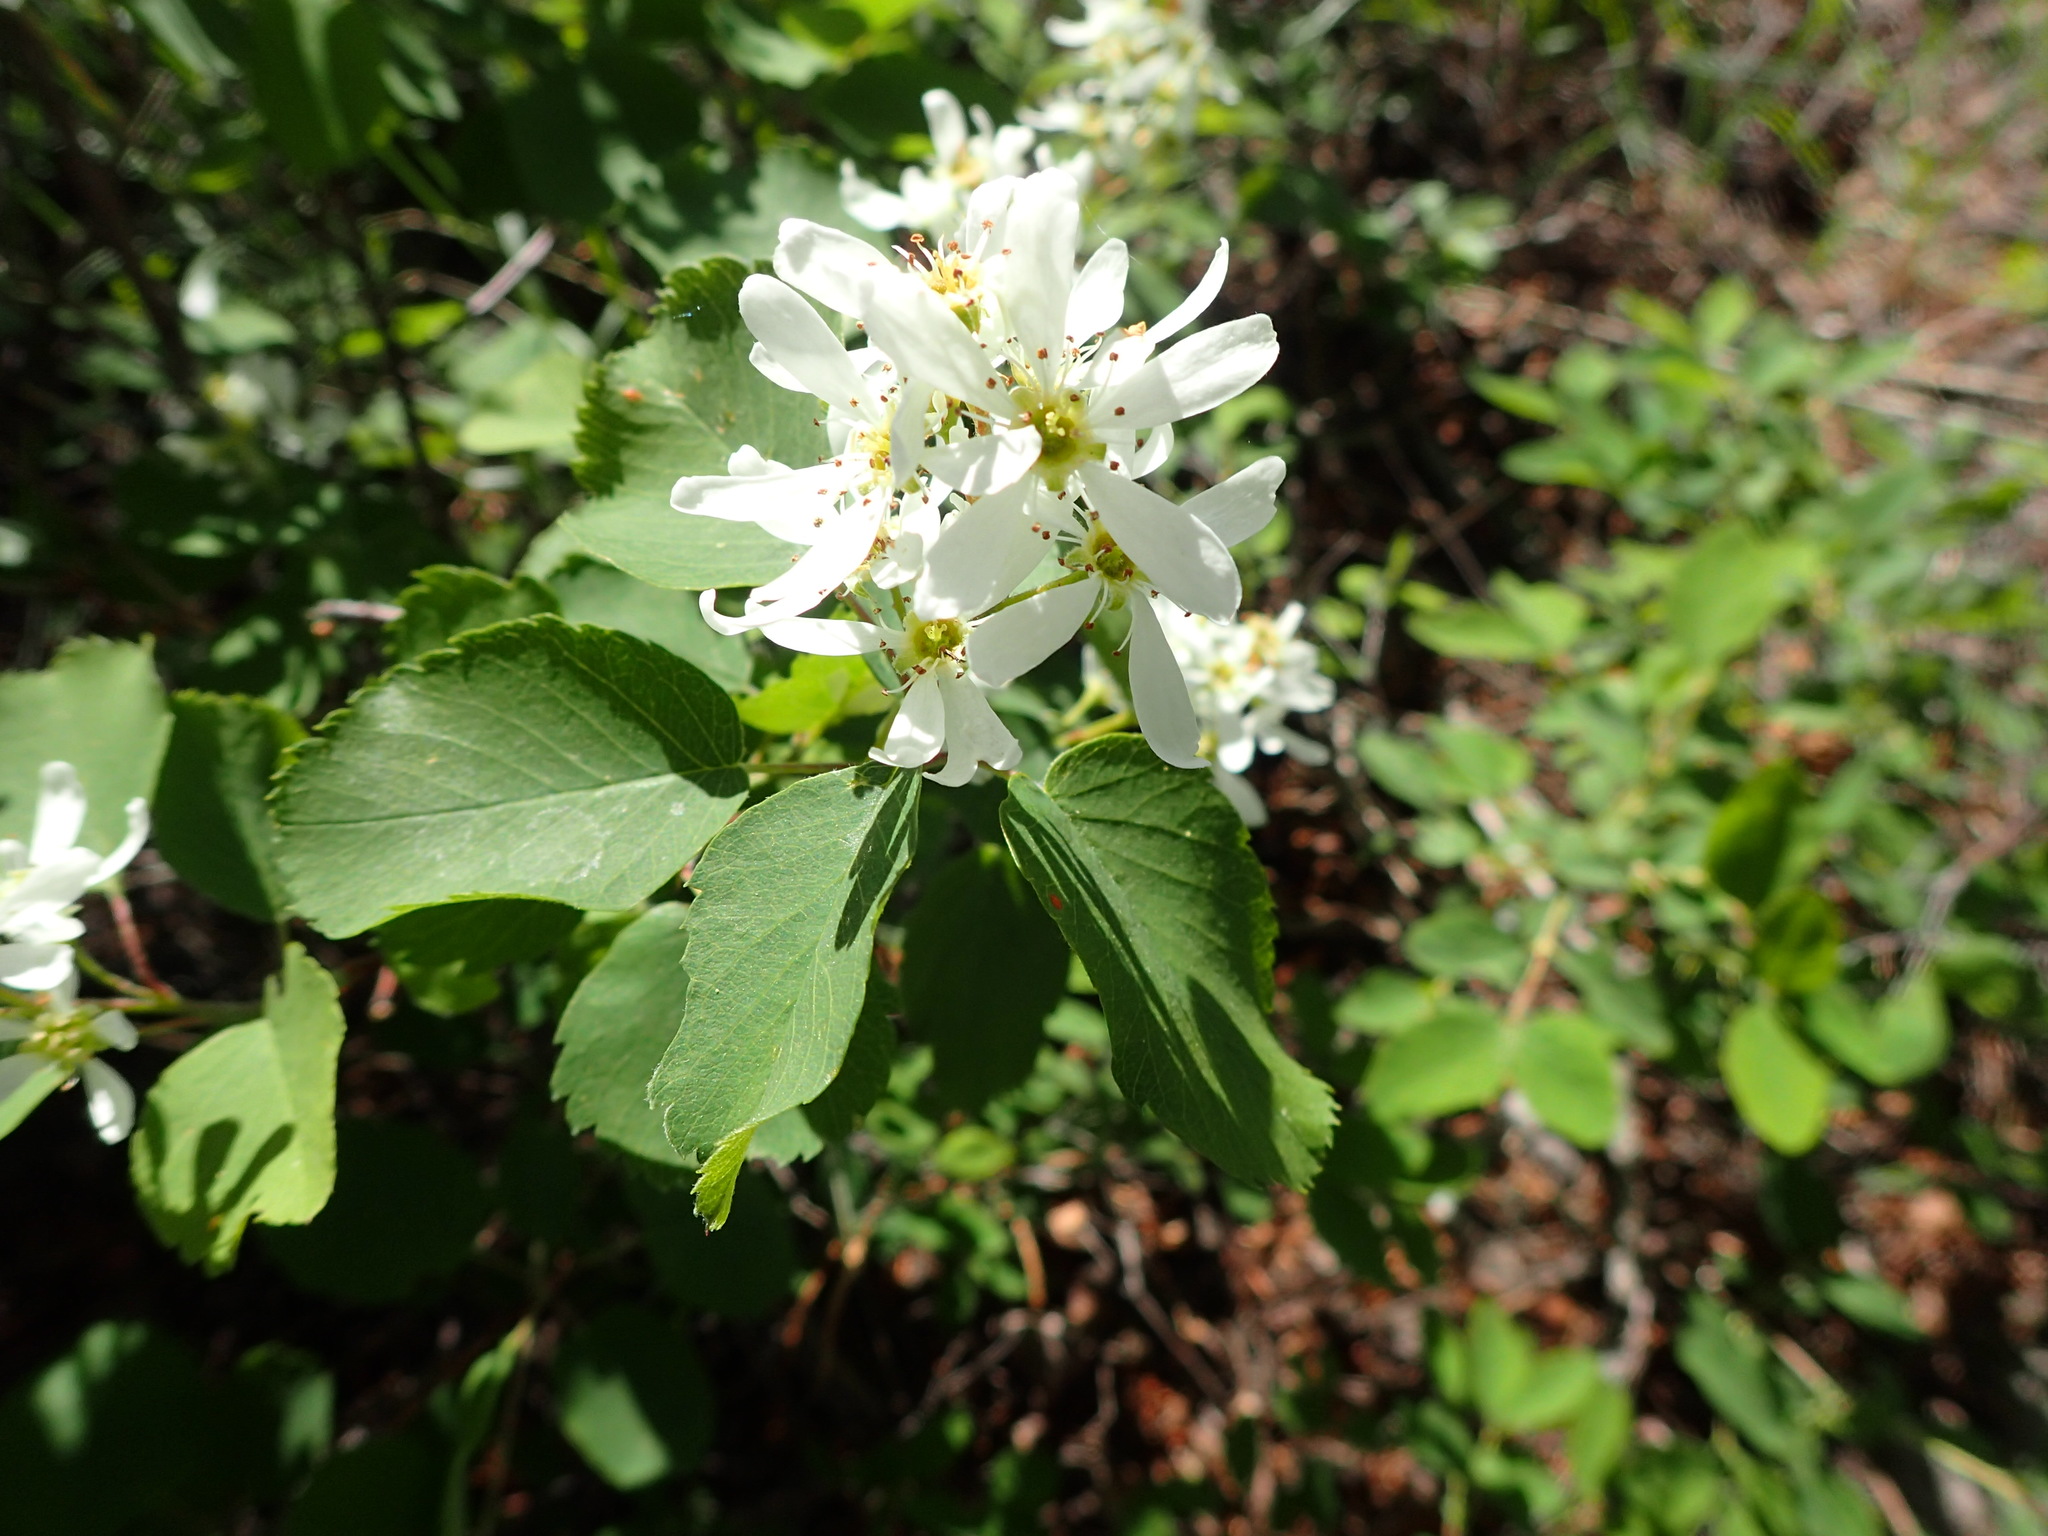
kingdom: Plantae
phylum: Tracheophyta
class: Magnoliopsida
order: Rosales
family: Rosaceae
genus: Amelanchier
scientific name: Amelanchier alnifolia
